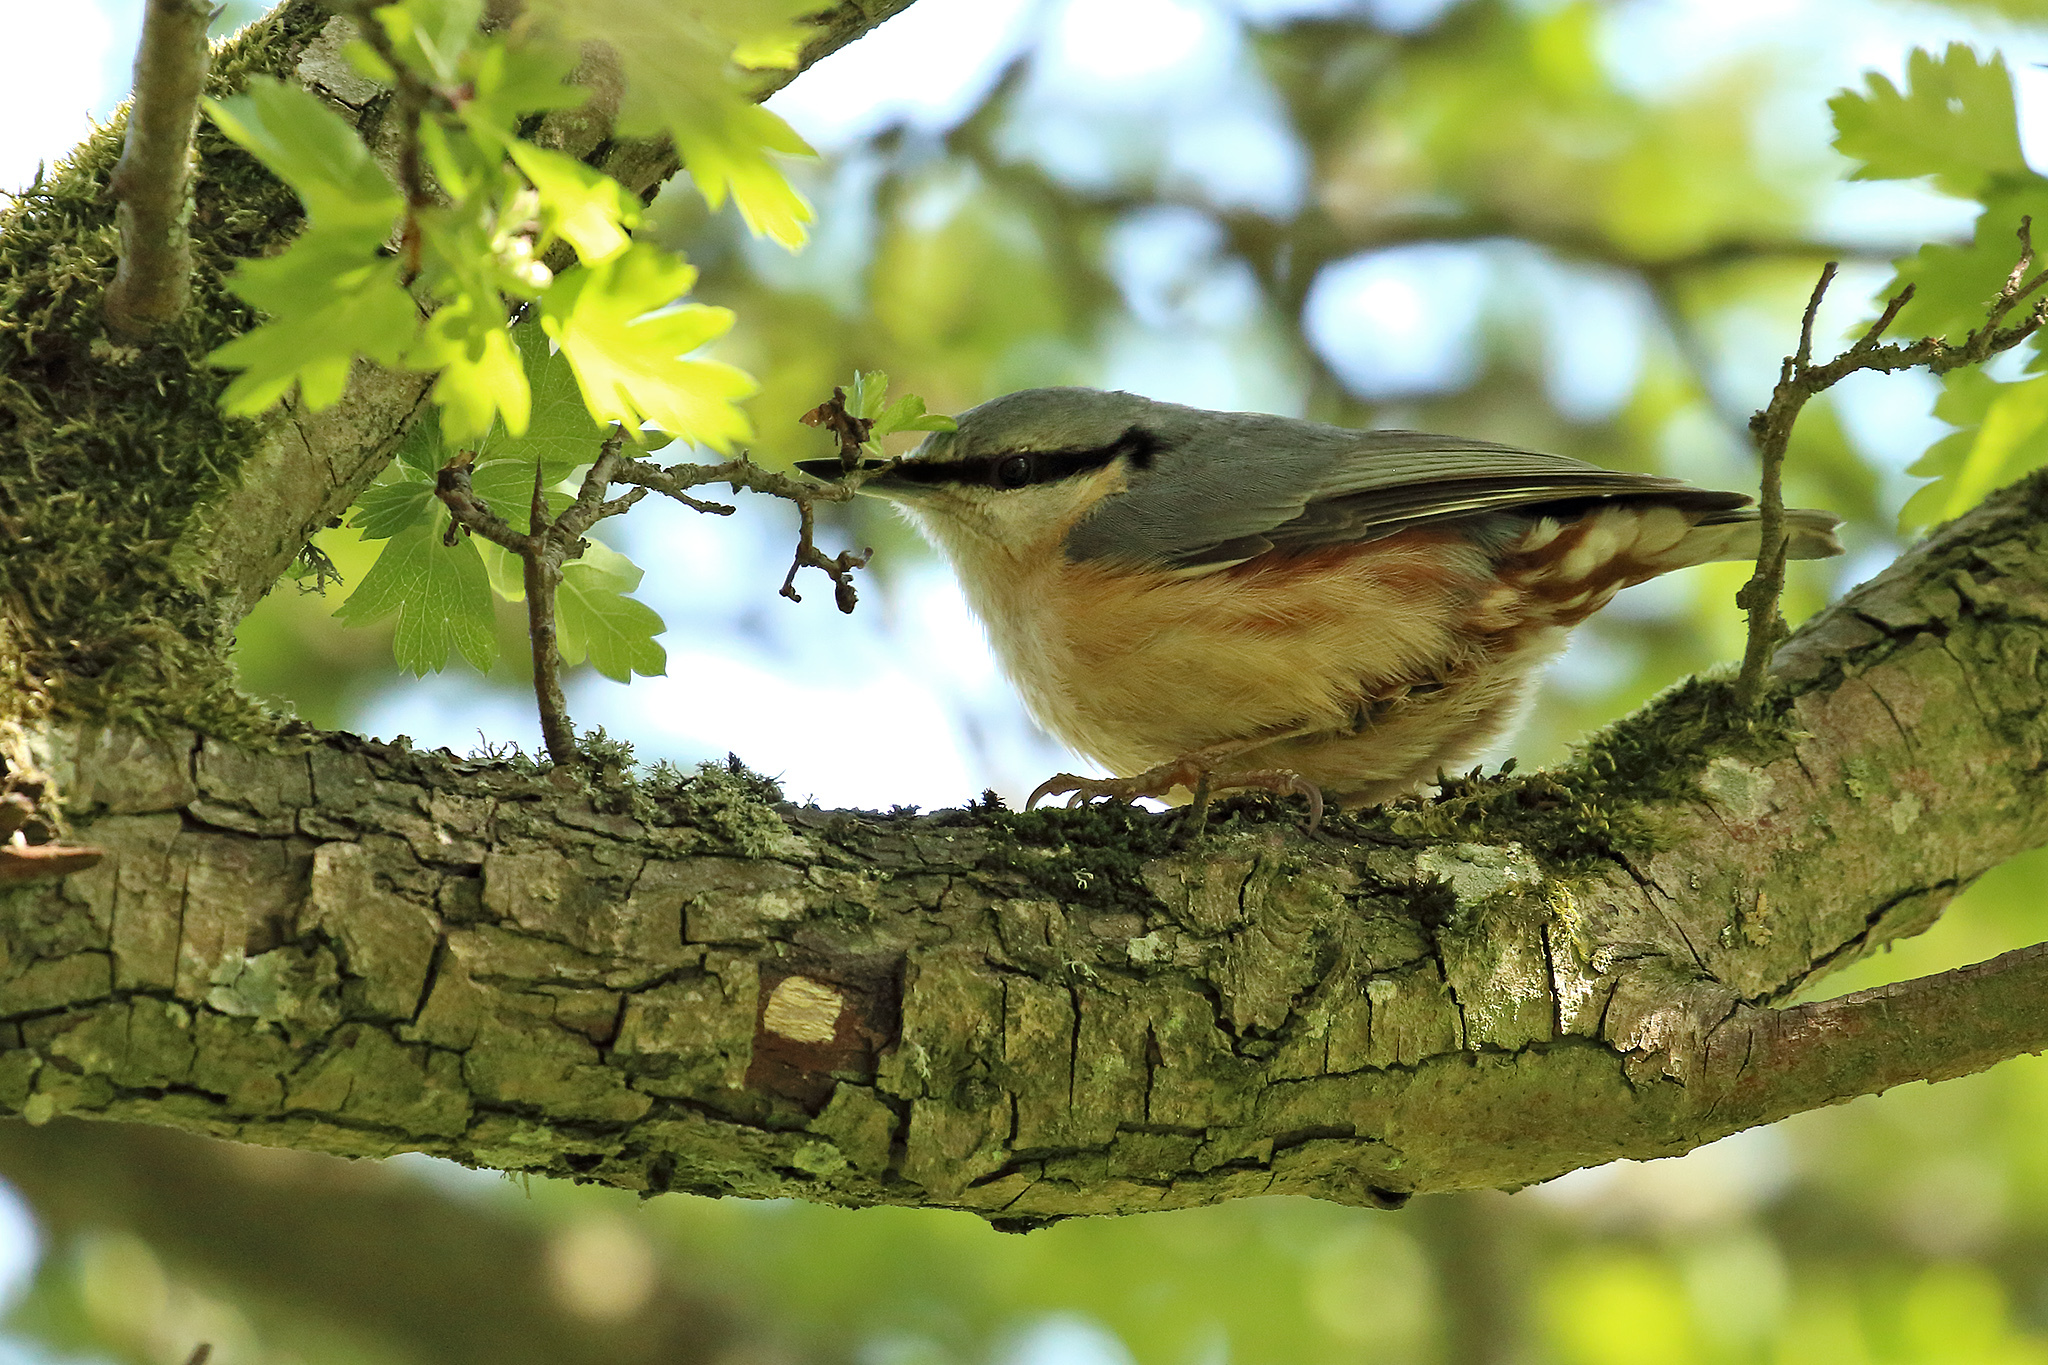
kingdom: Animalia
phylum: Chordata
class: Aves
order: Passeriformes
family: Sittidae
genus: Sitta
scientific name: Sitta europaea
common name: Eurasian nuthatch
